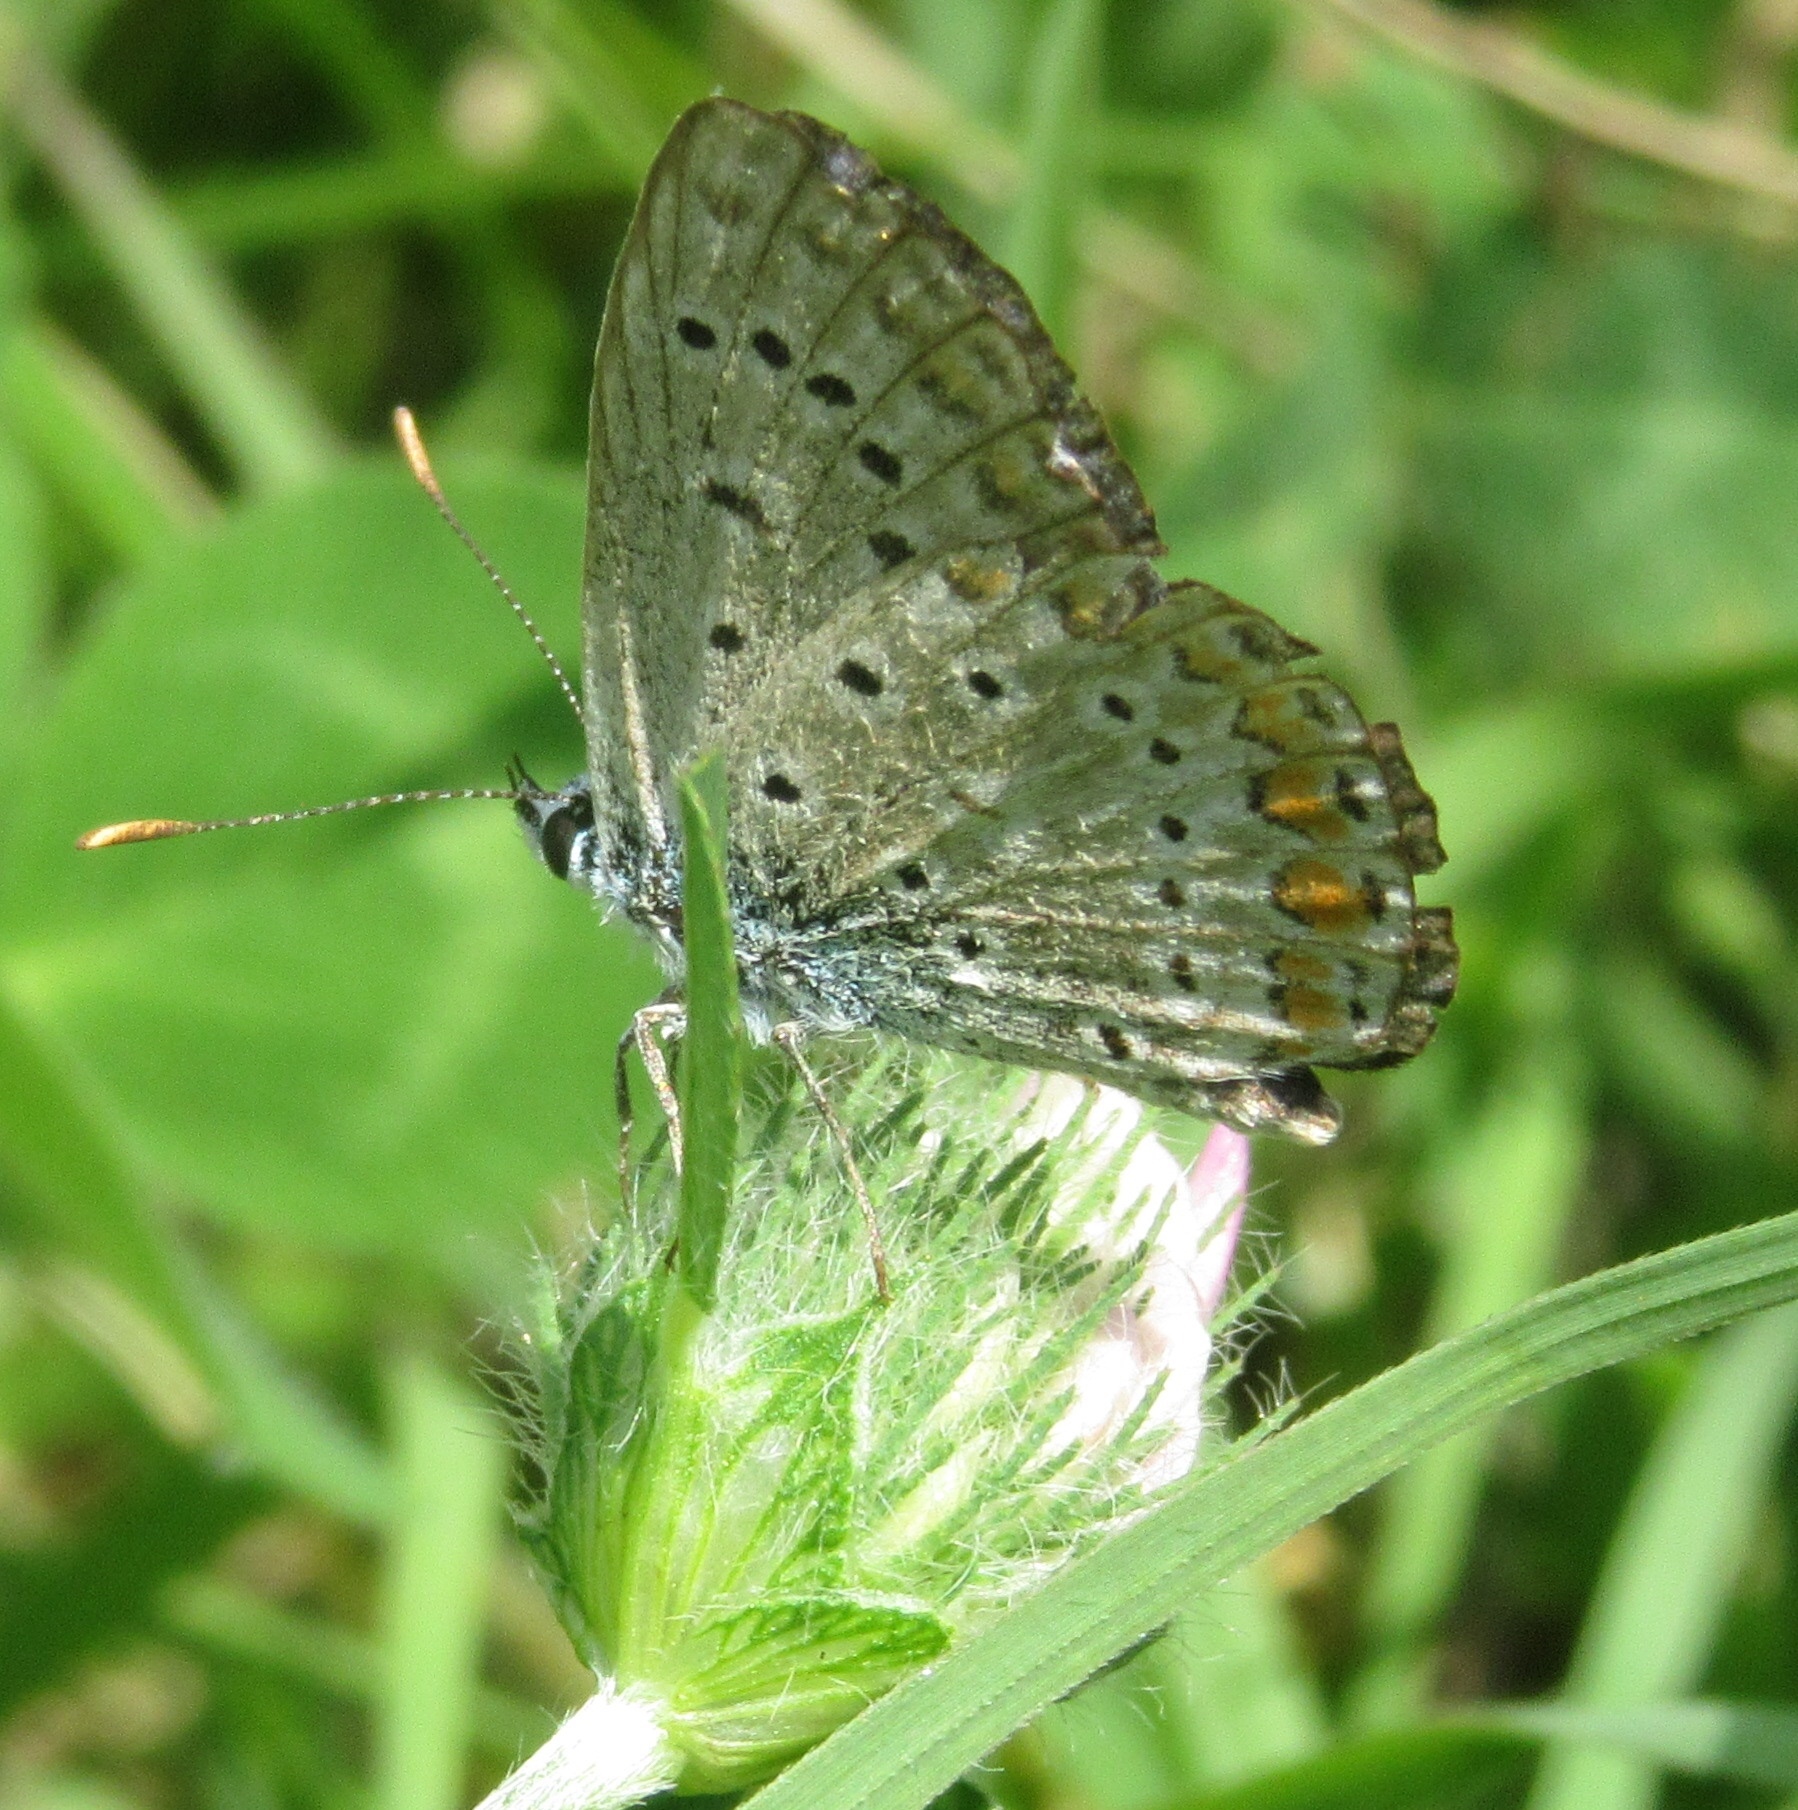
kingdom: Animalia
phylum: Arthropoda
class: Insecta
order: Lepidoptera
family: Lycaenidae
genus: Polyommatus
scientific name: Polyommatus icarus
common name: Common blue
